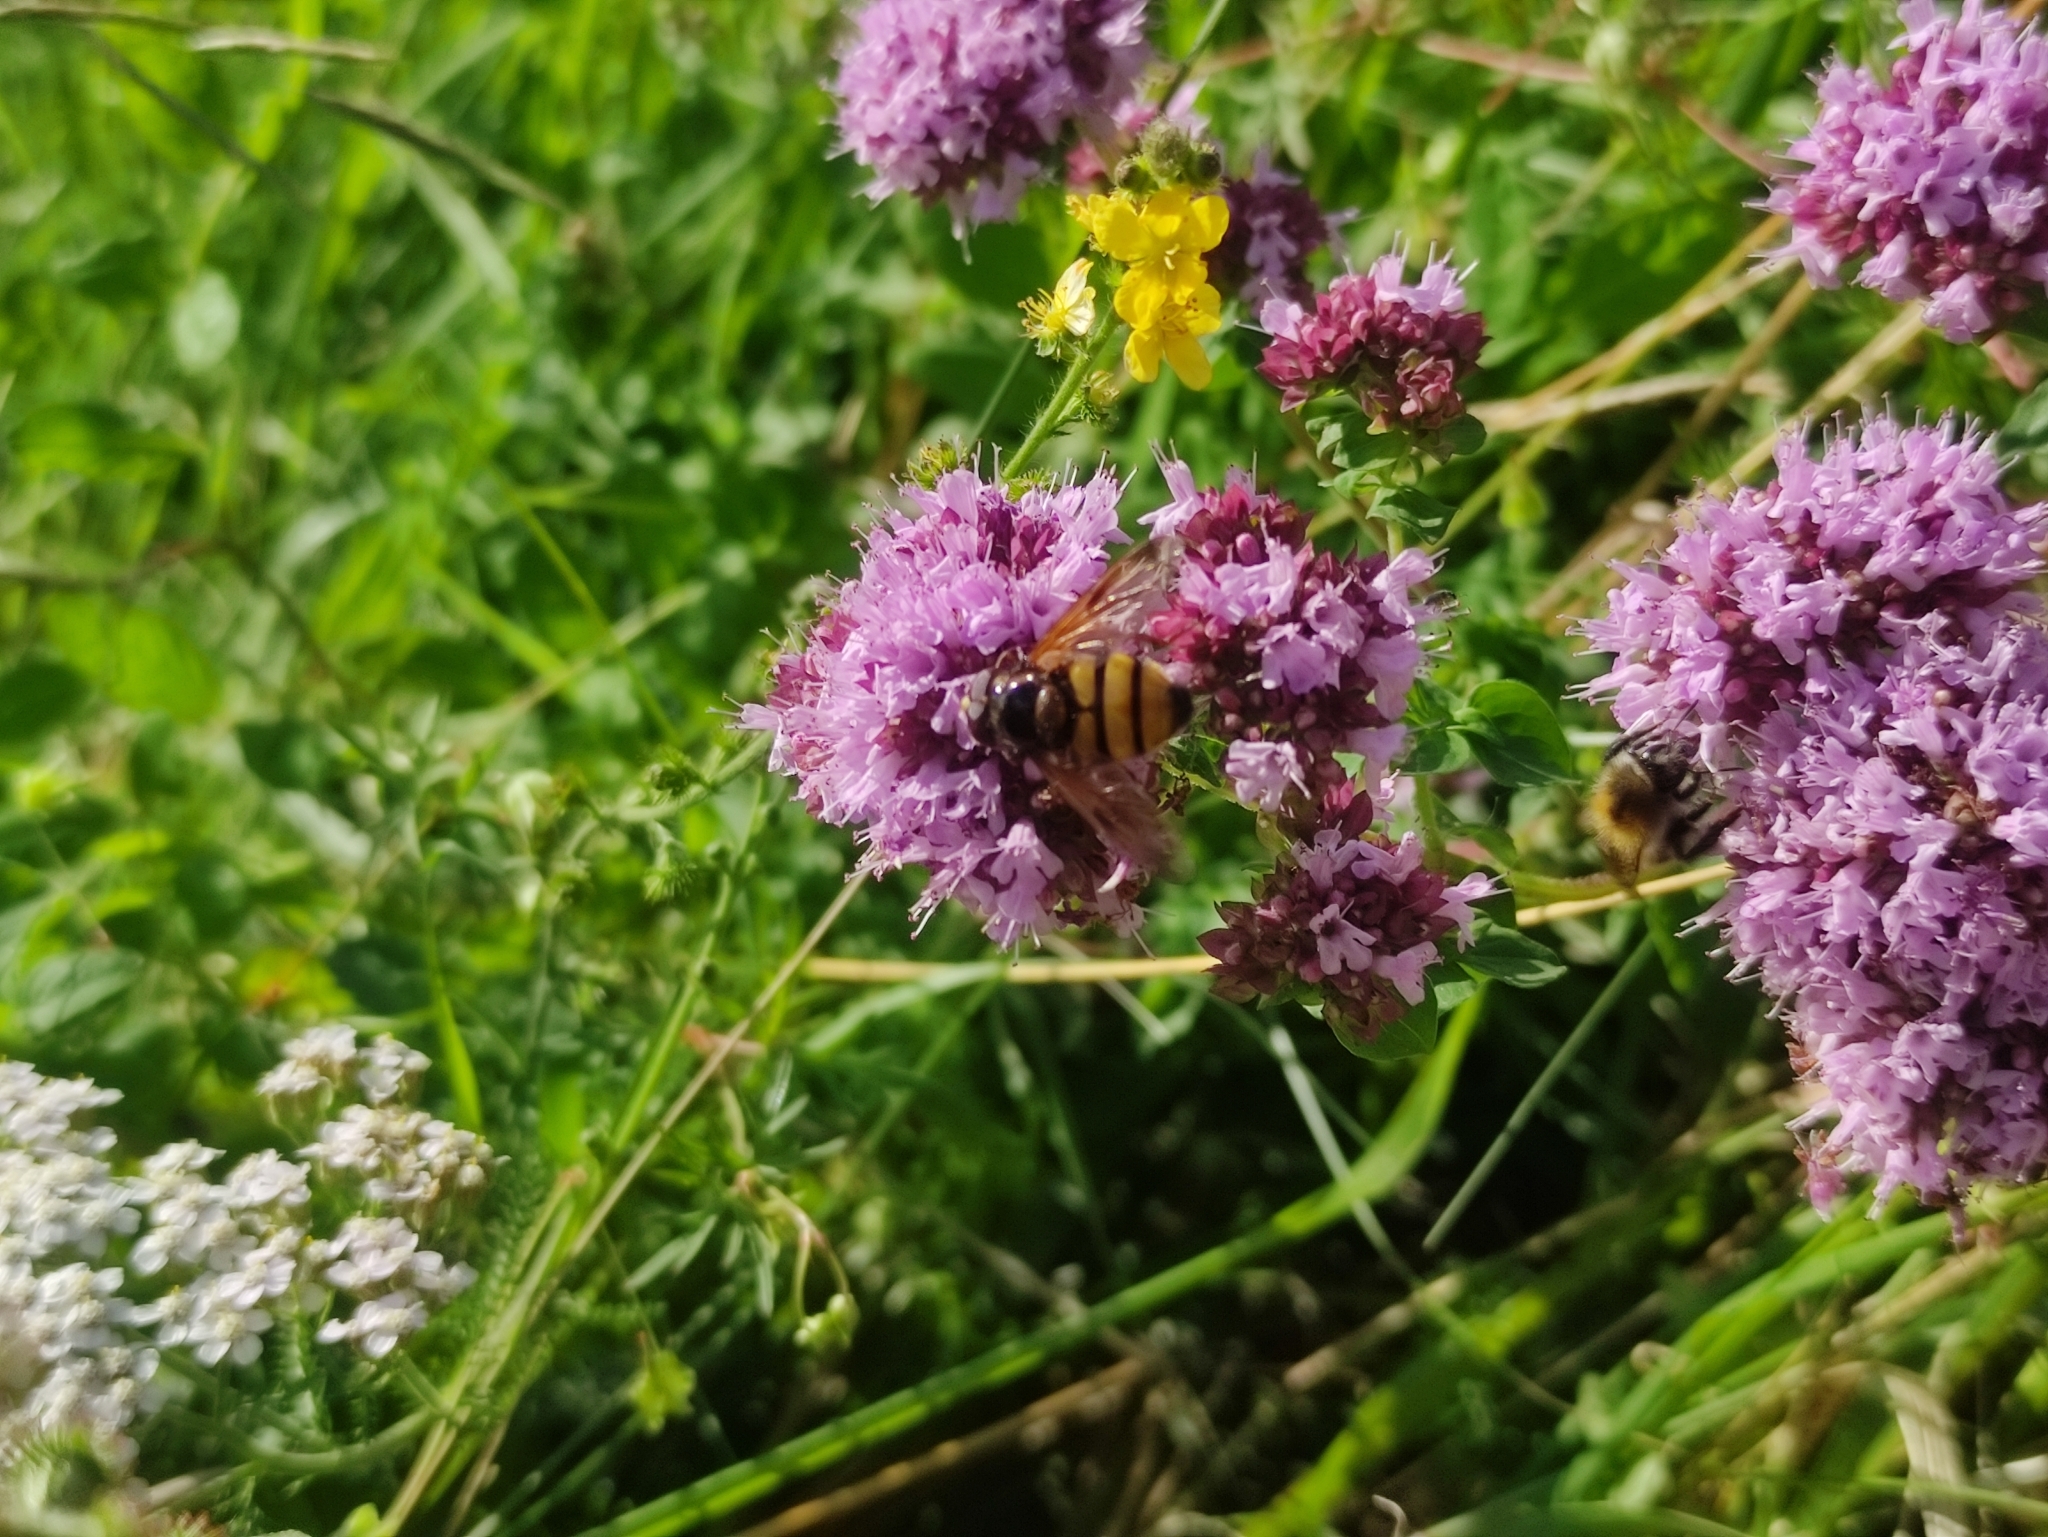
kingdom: Animalia
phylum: Arthropoda
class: Insecta
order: Diptera
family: Syrphidae
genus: Volucella
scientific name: Volucella inanis
